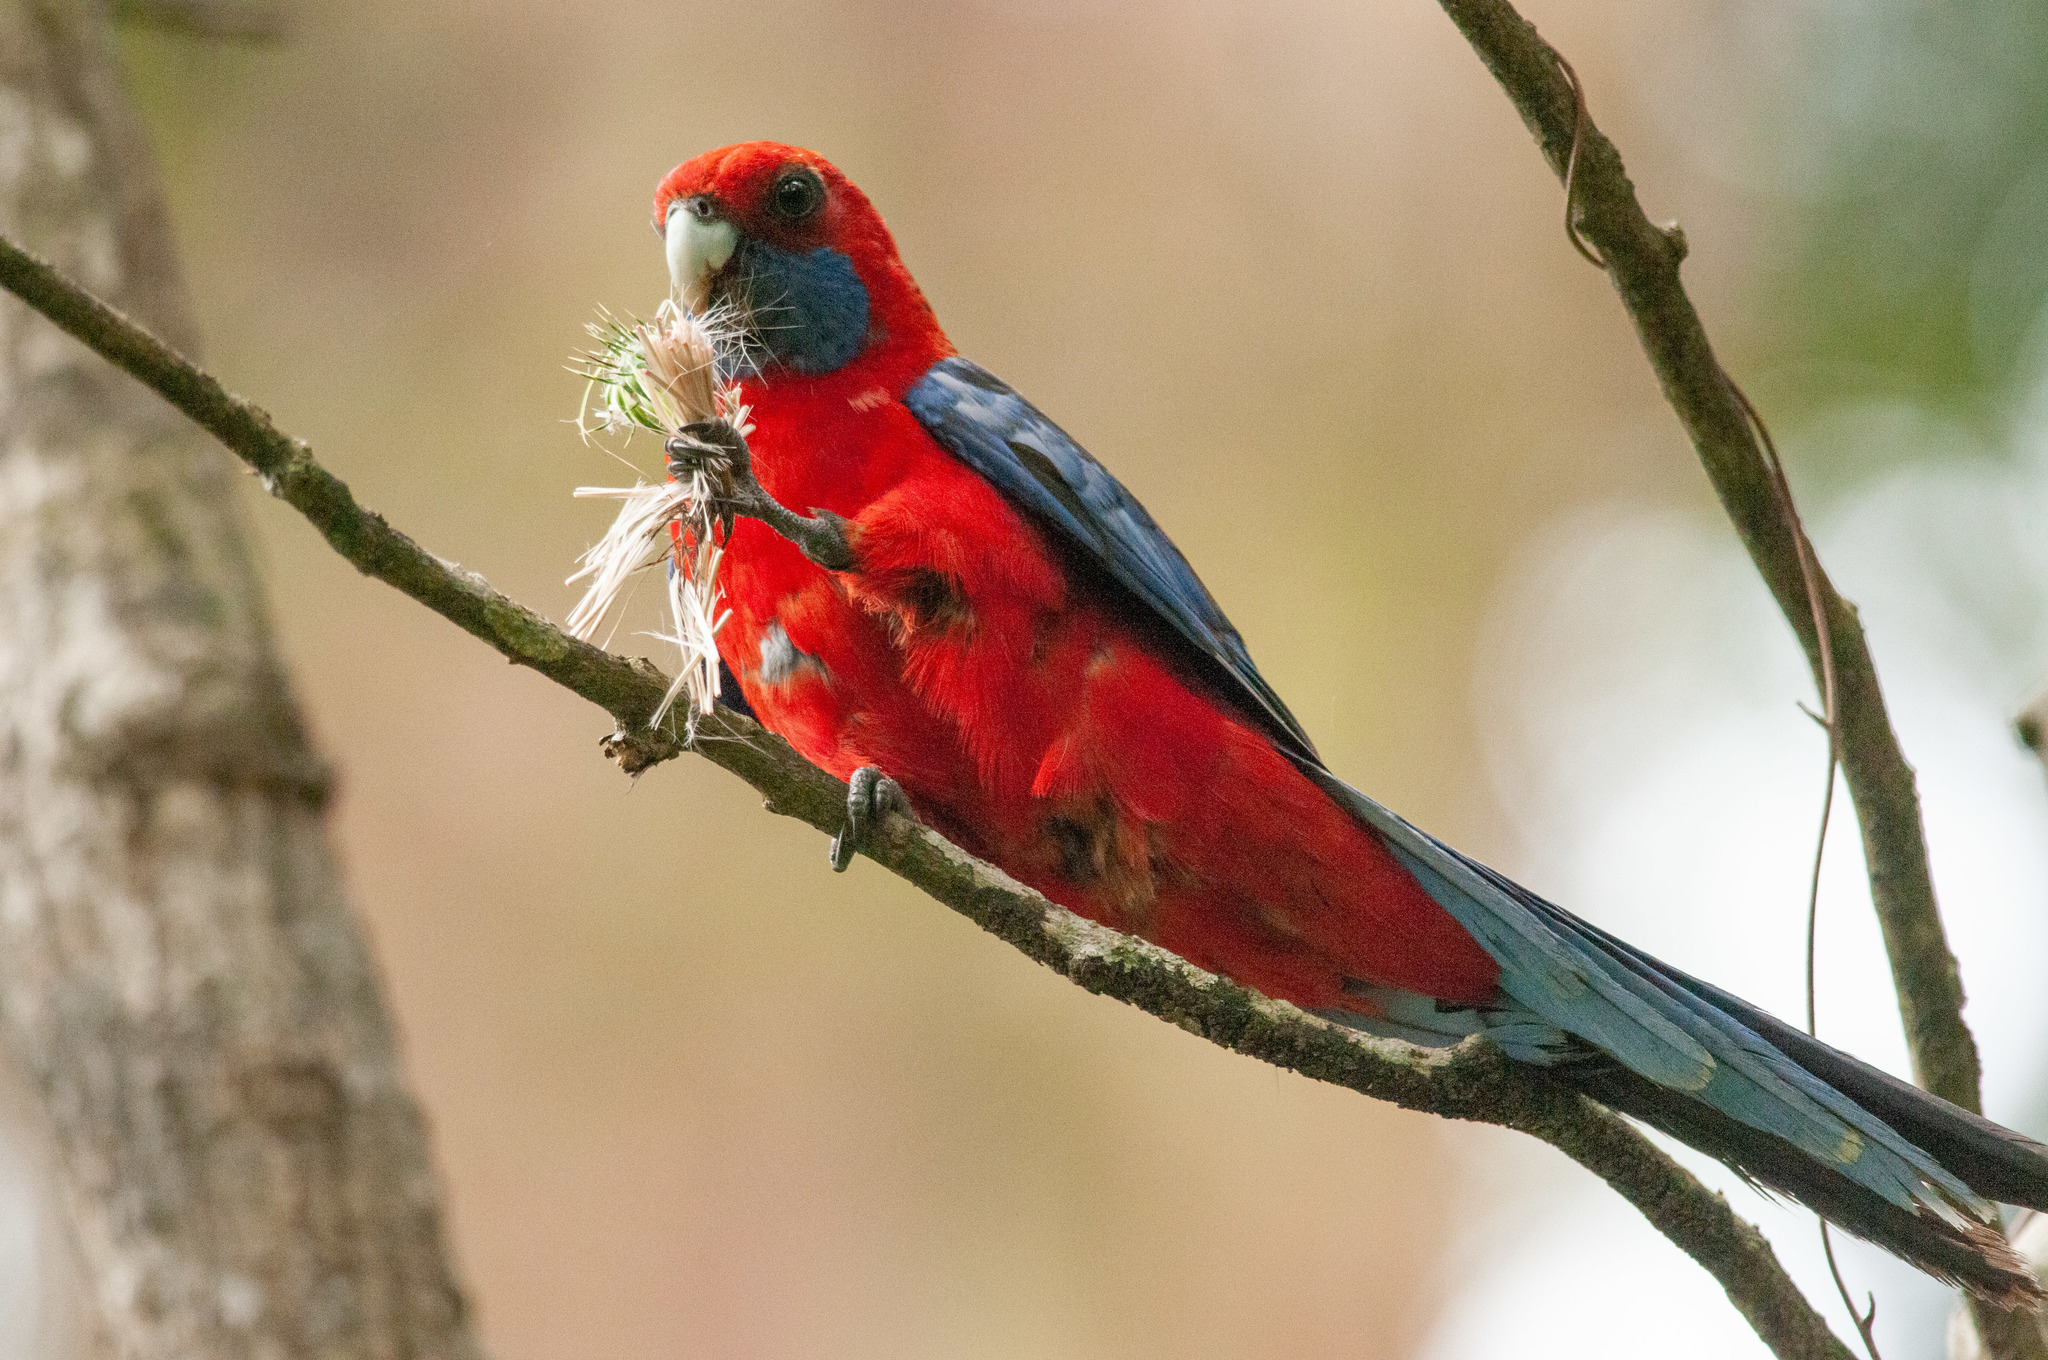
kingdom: Animalia
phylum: Chordata
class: Aves
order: Psittaciformes
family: Psittacidae
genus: Platycercus
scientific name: Platycercus elegans
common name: Crimson rosella
